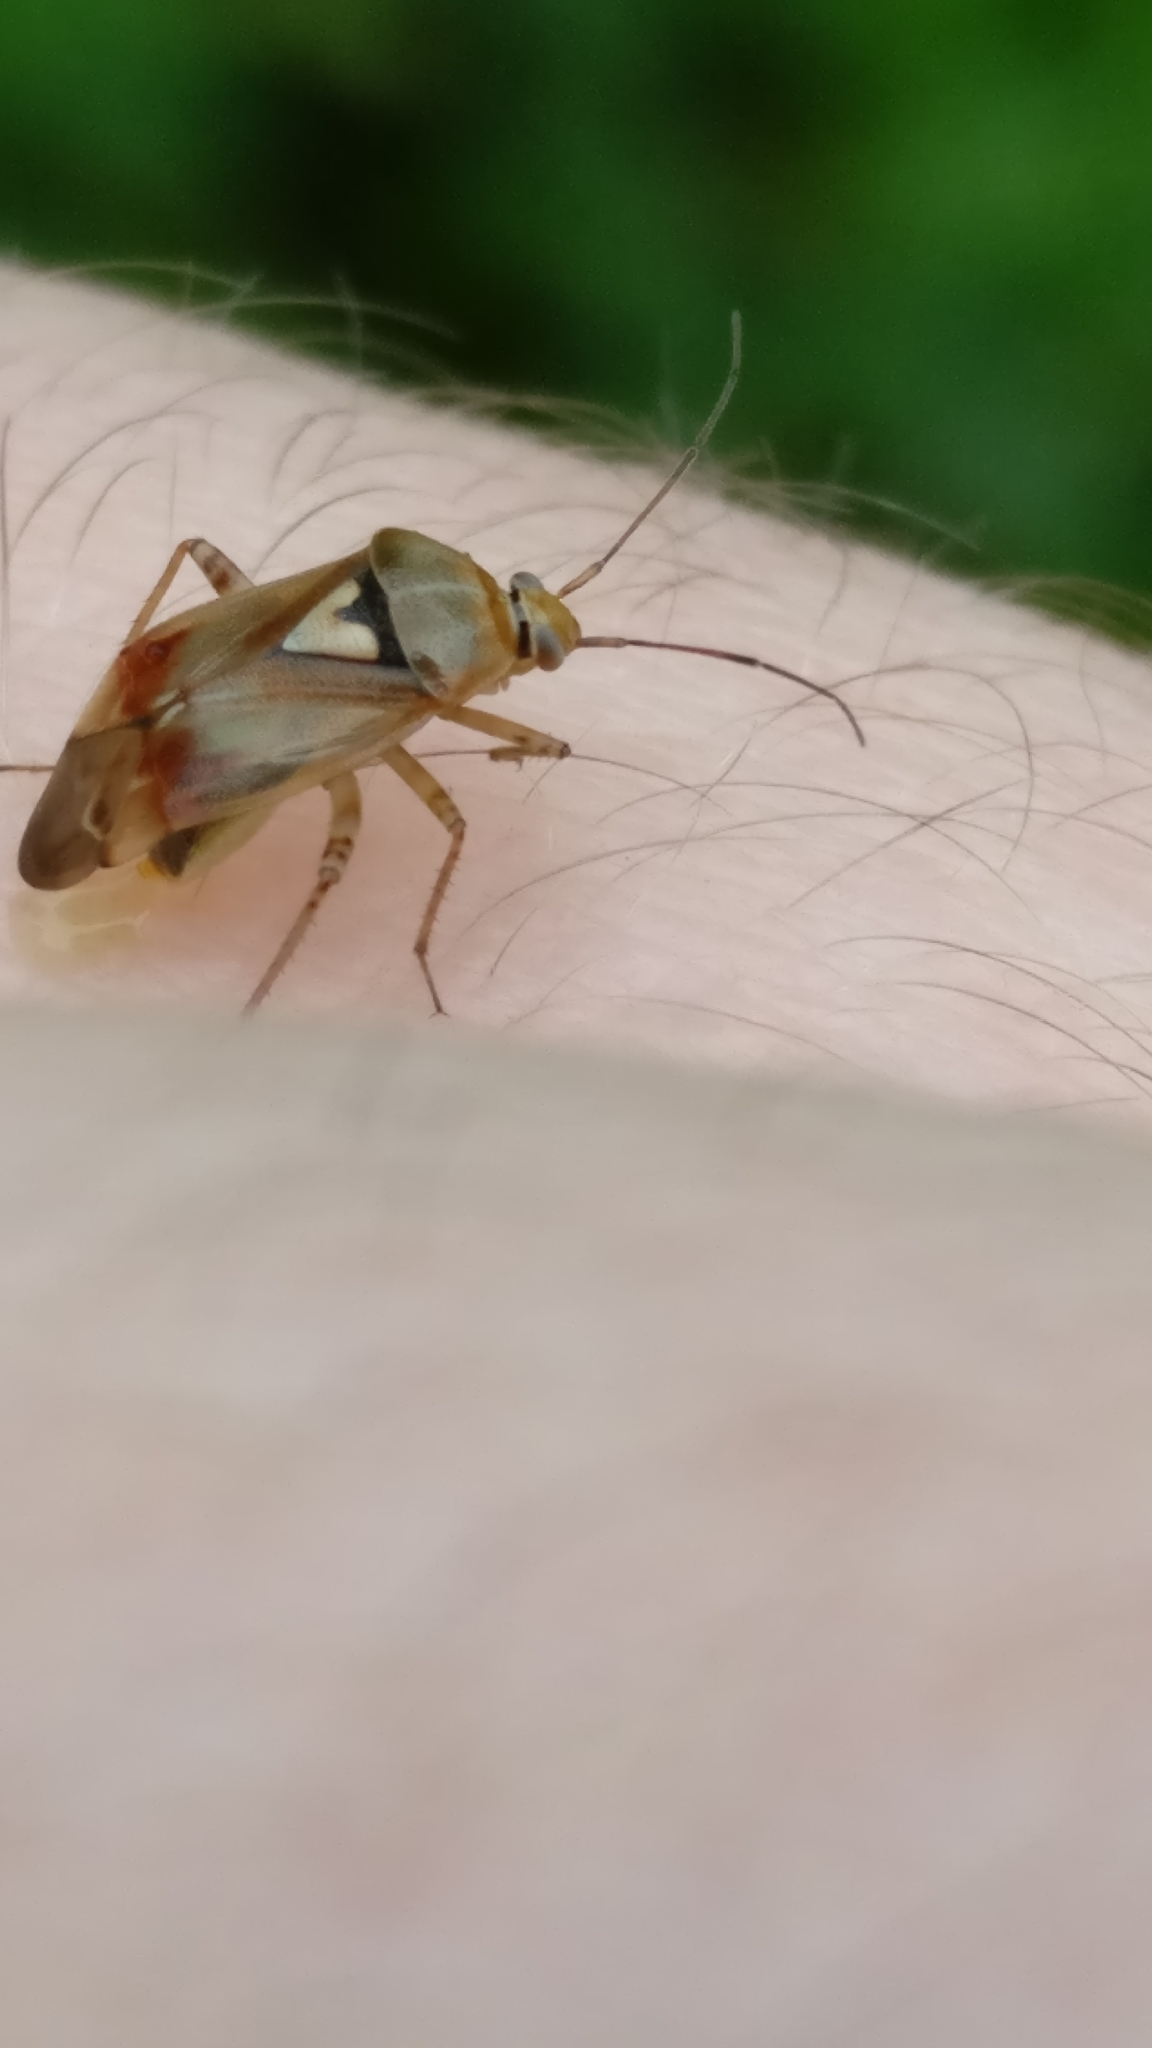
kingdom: Animalia
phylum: Arthropoda
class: Insecta
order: Hemiptera
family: Miridae
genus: Lygus
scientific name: Lygus pratensis
